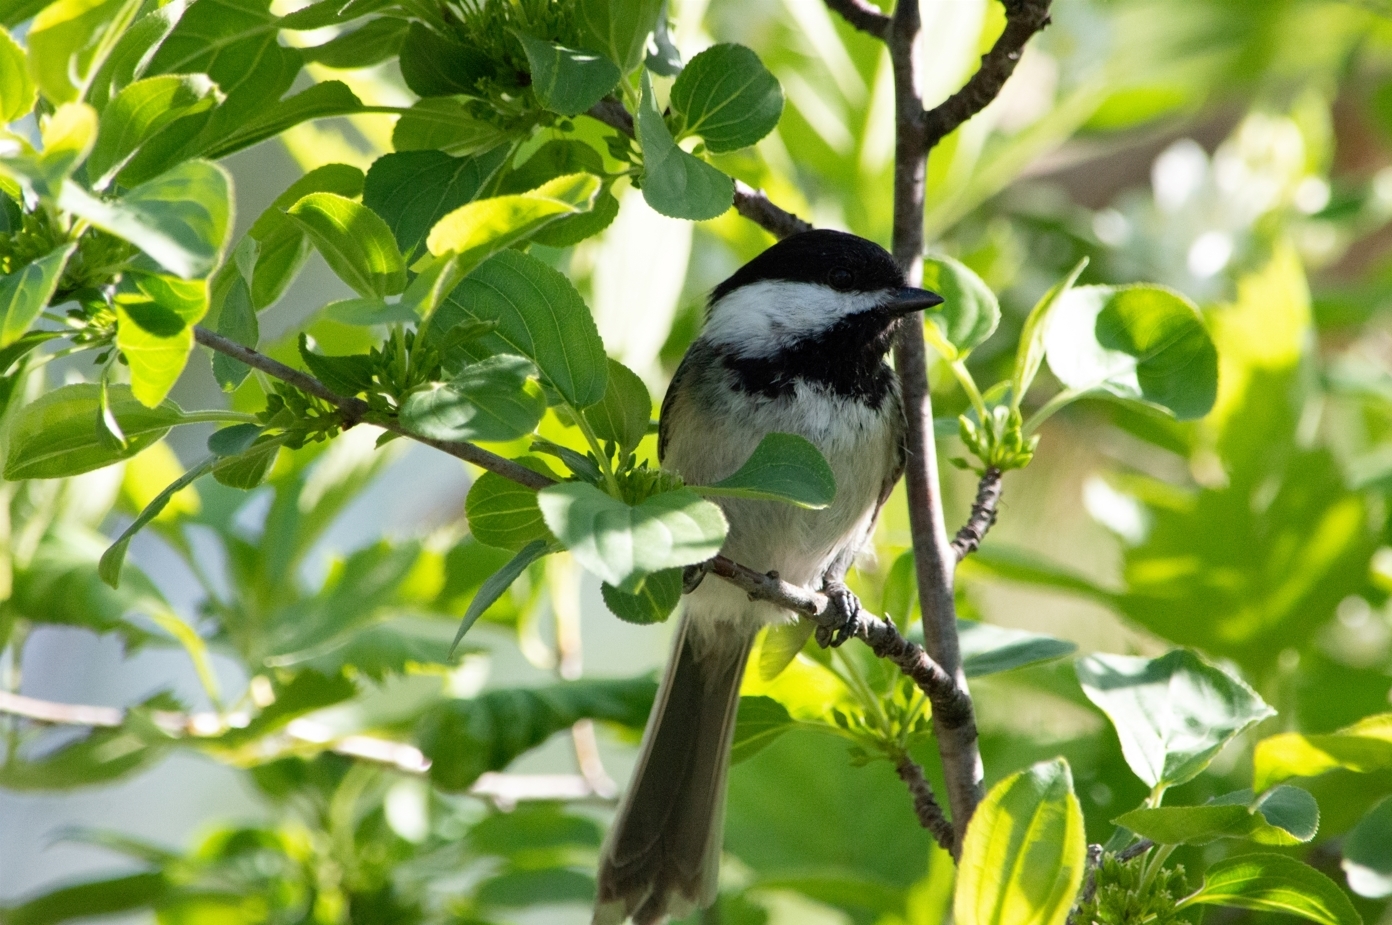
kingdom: Animalia
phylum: Chordata
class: Aves
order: Passeriformes
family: Paridae
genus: Poecile
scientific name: Poecile atricapillus
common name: Black-capped chickadee
